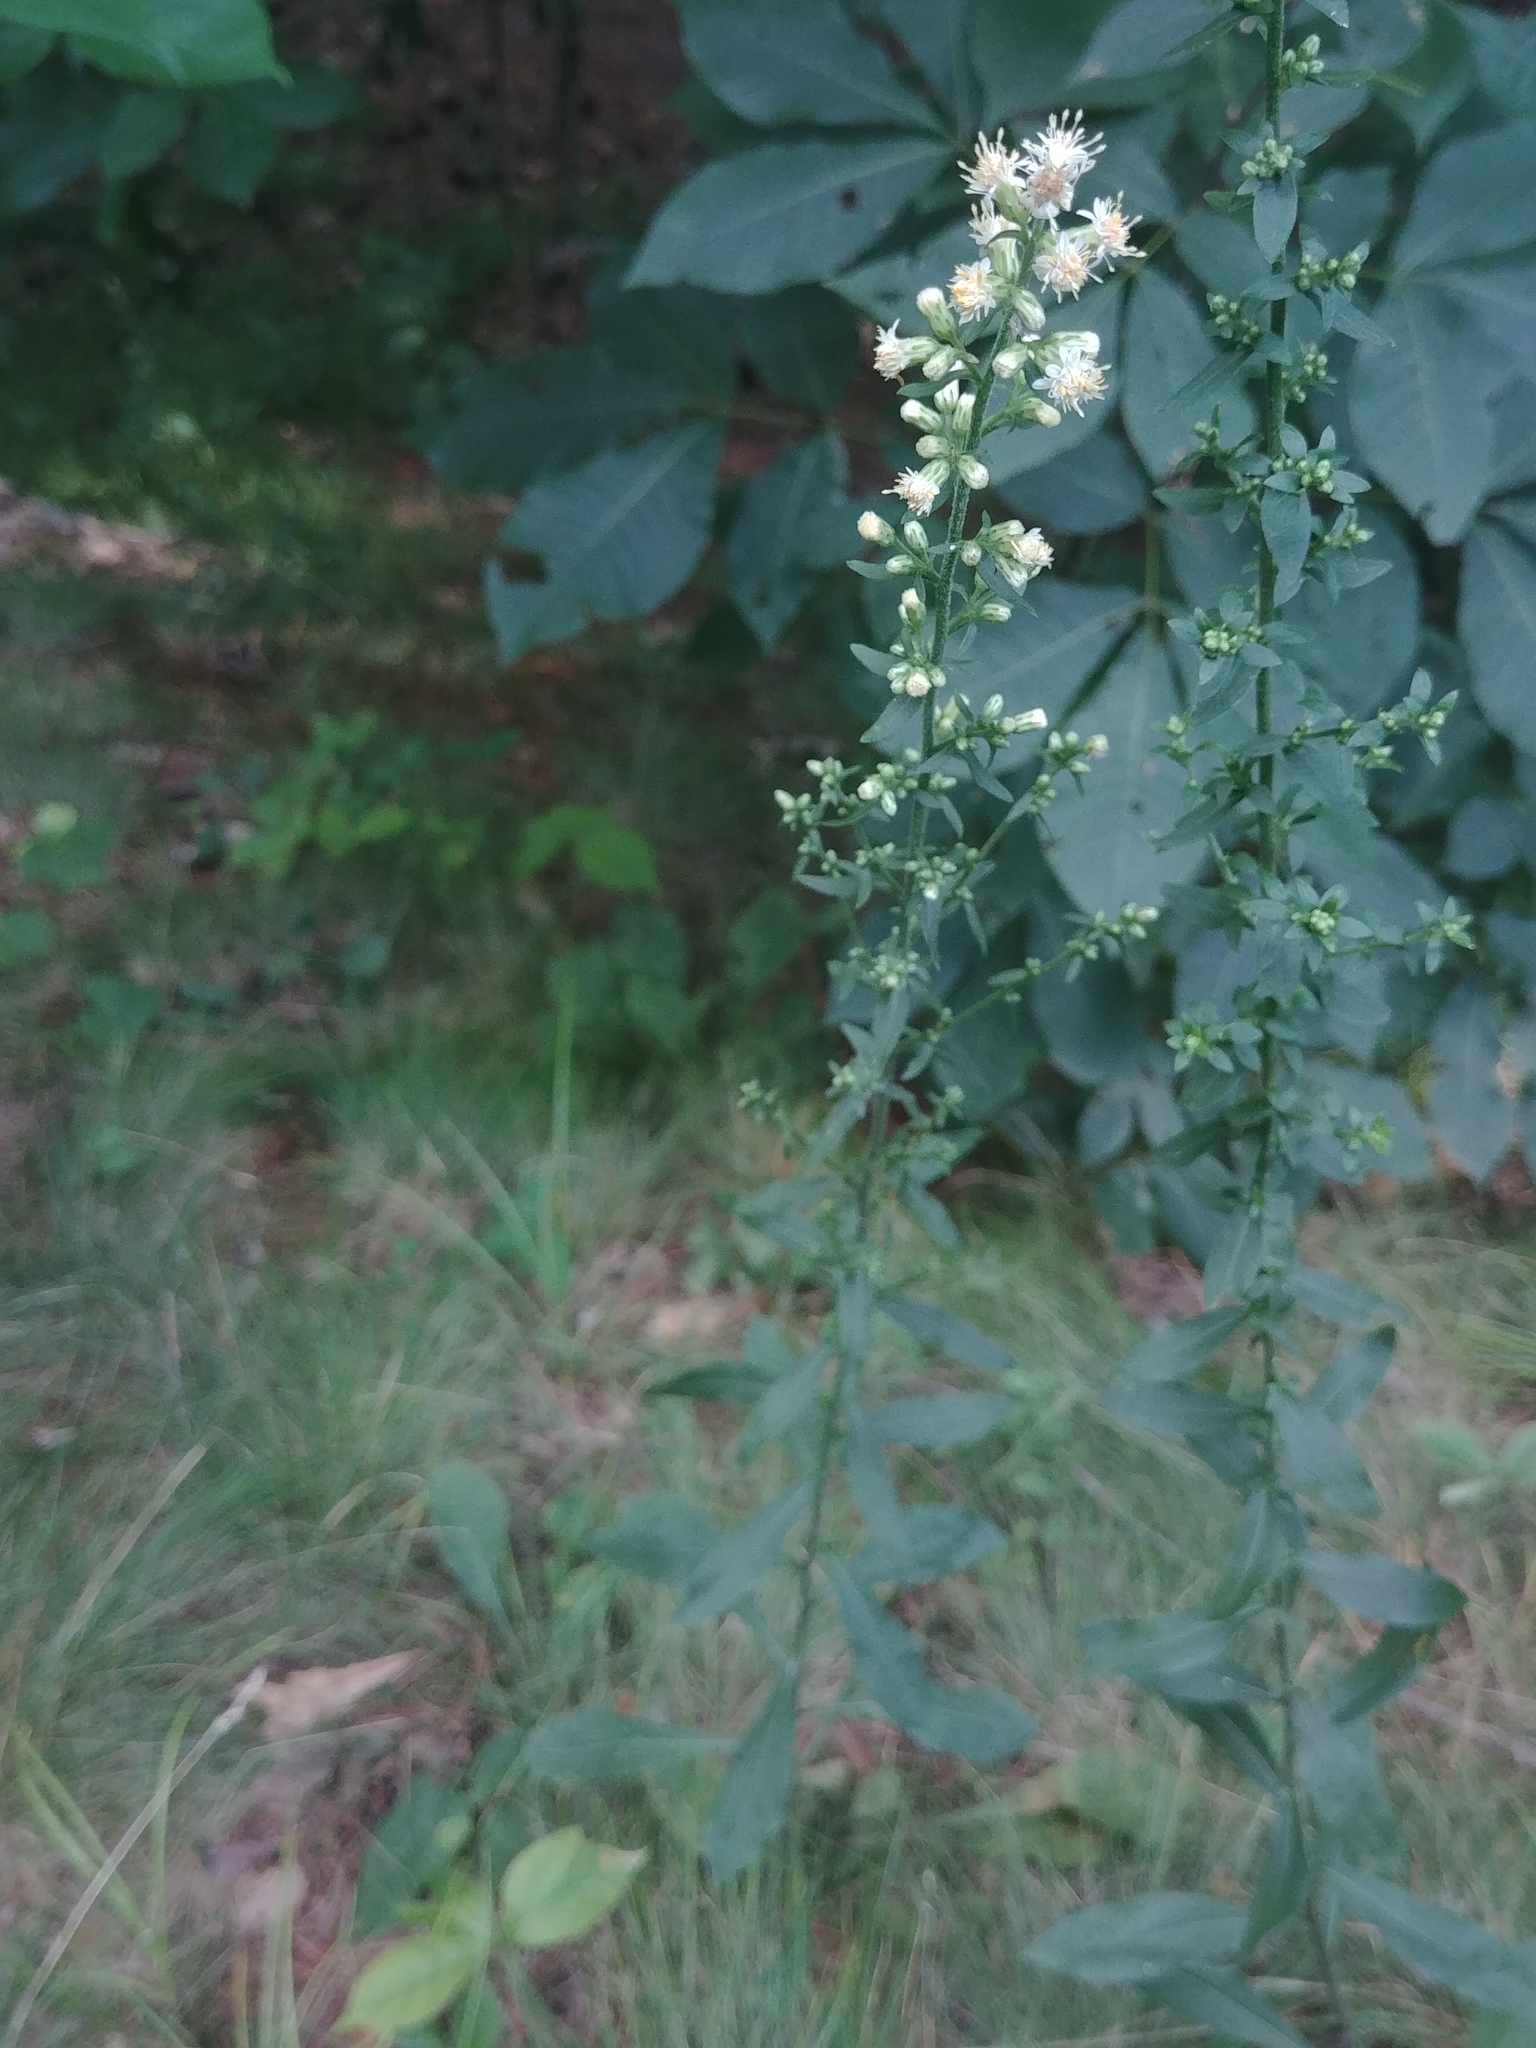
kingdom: Plantae
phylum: Tracheophyta
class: Magnoliopsida
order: Asterales
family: Asteraceae
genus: Solidago
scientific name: Solidago bicolor
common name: Silverrod
